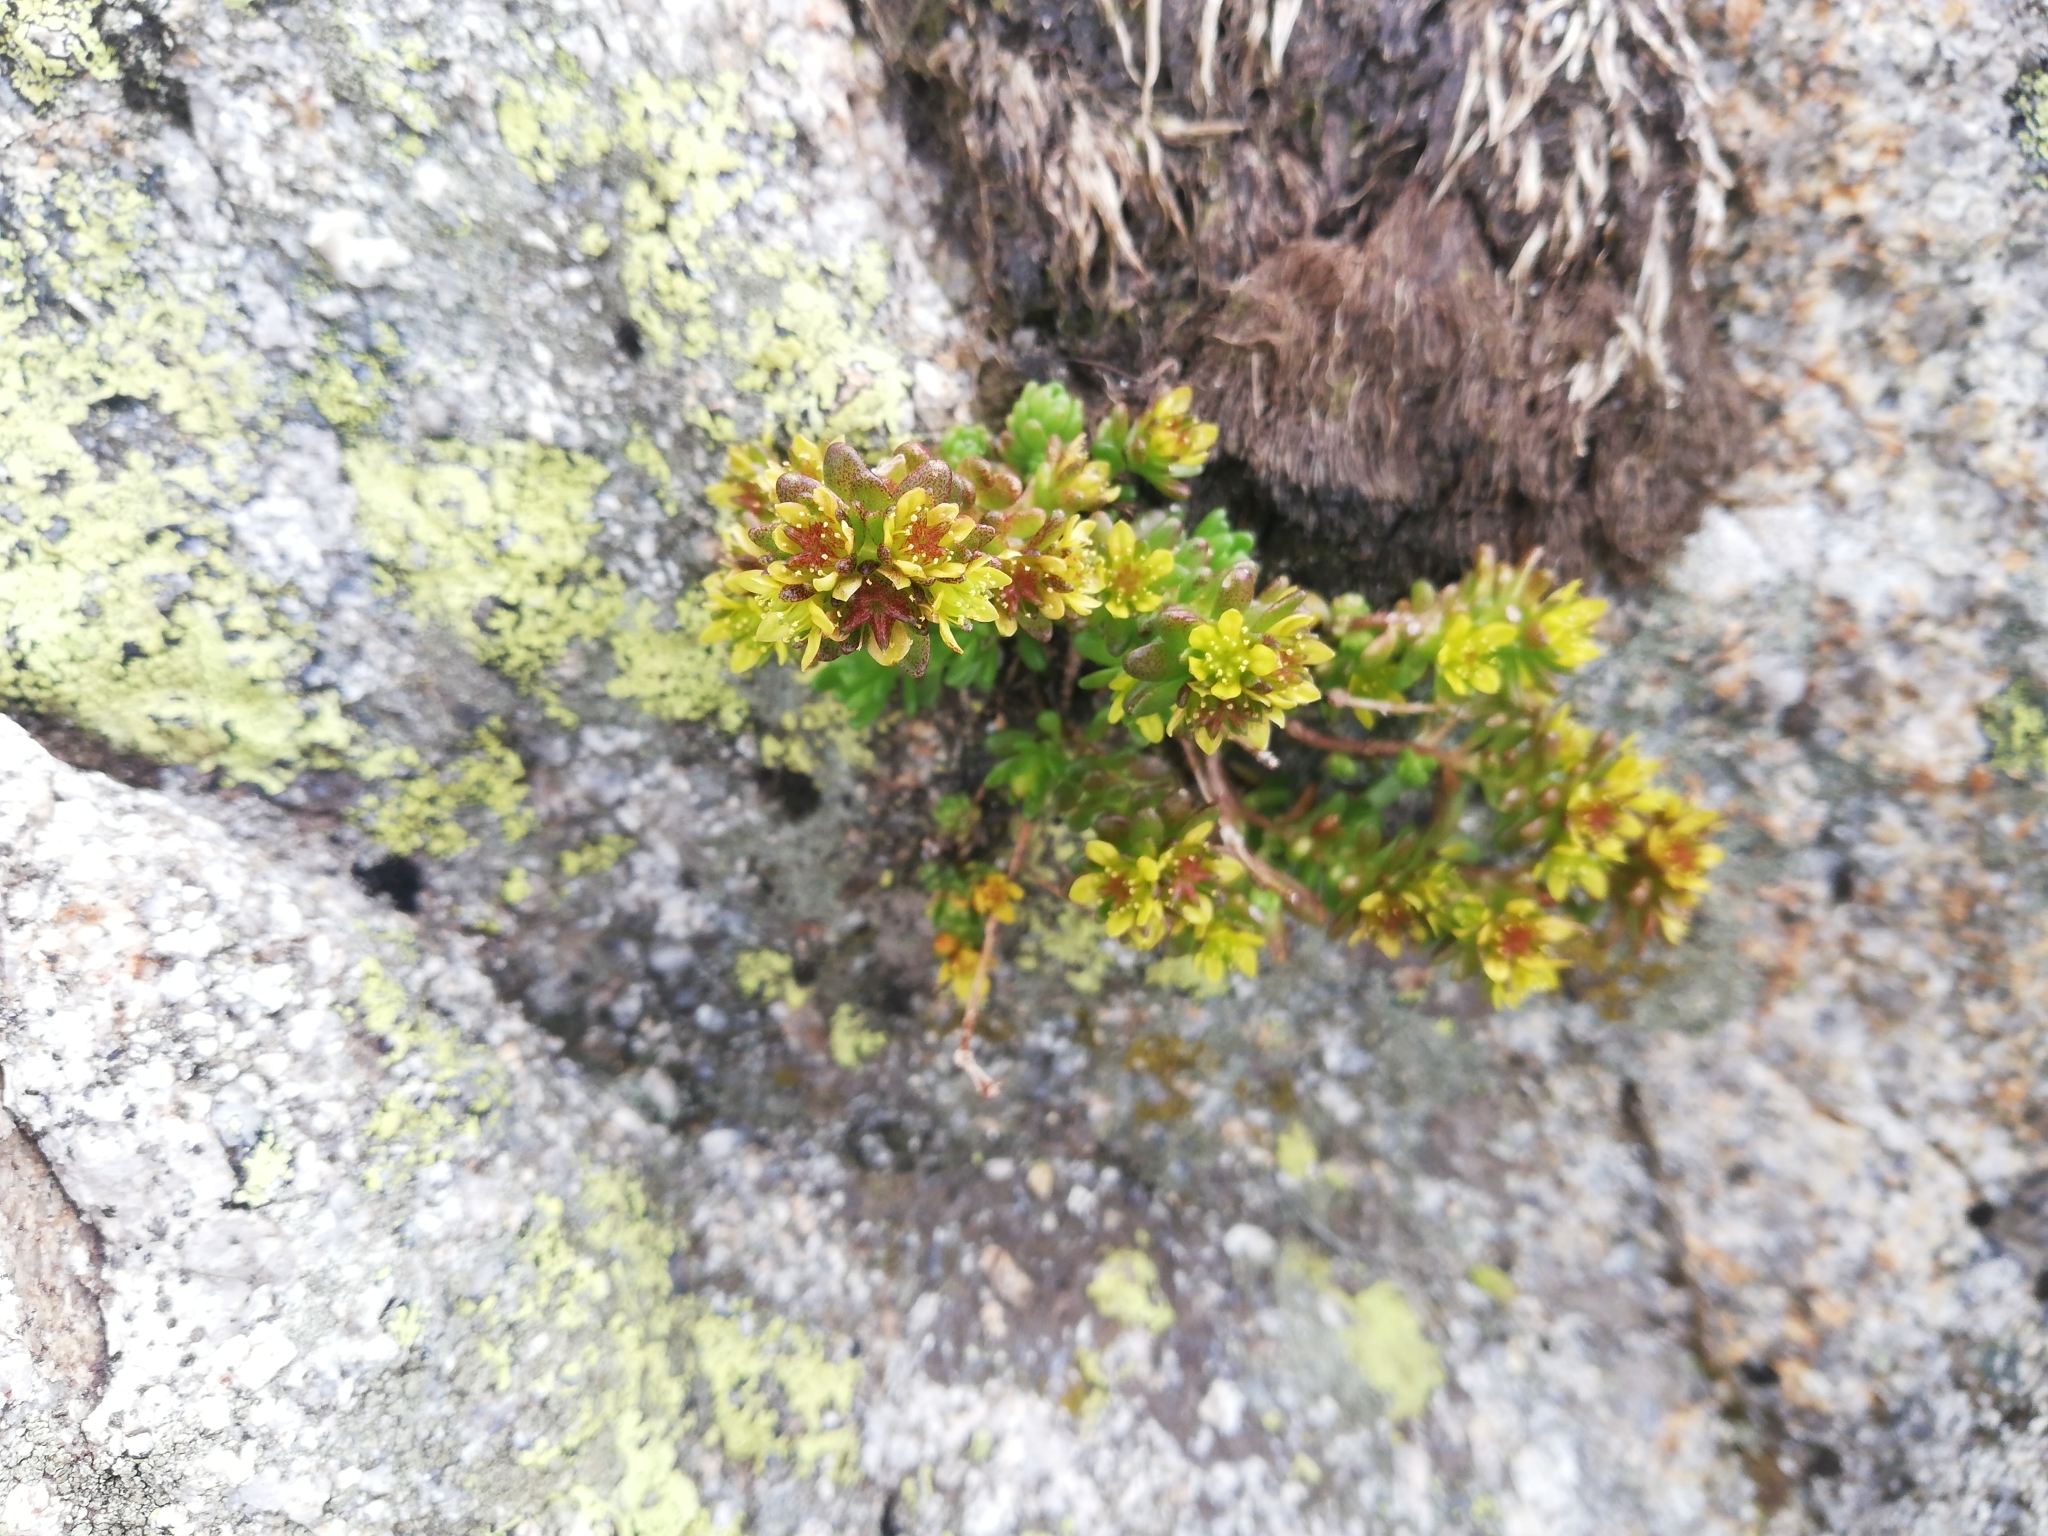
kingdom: Plantae
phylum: Tracheophyta
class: Magnoliopsida
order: Saxifragales
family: Crassulaceae
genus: Sedum
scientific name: Sedum alpestre
